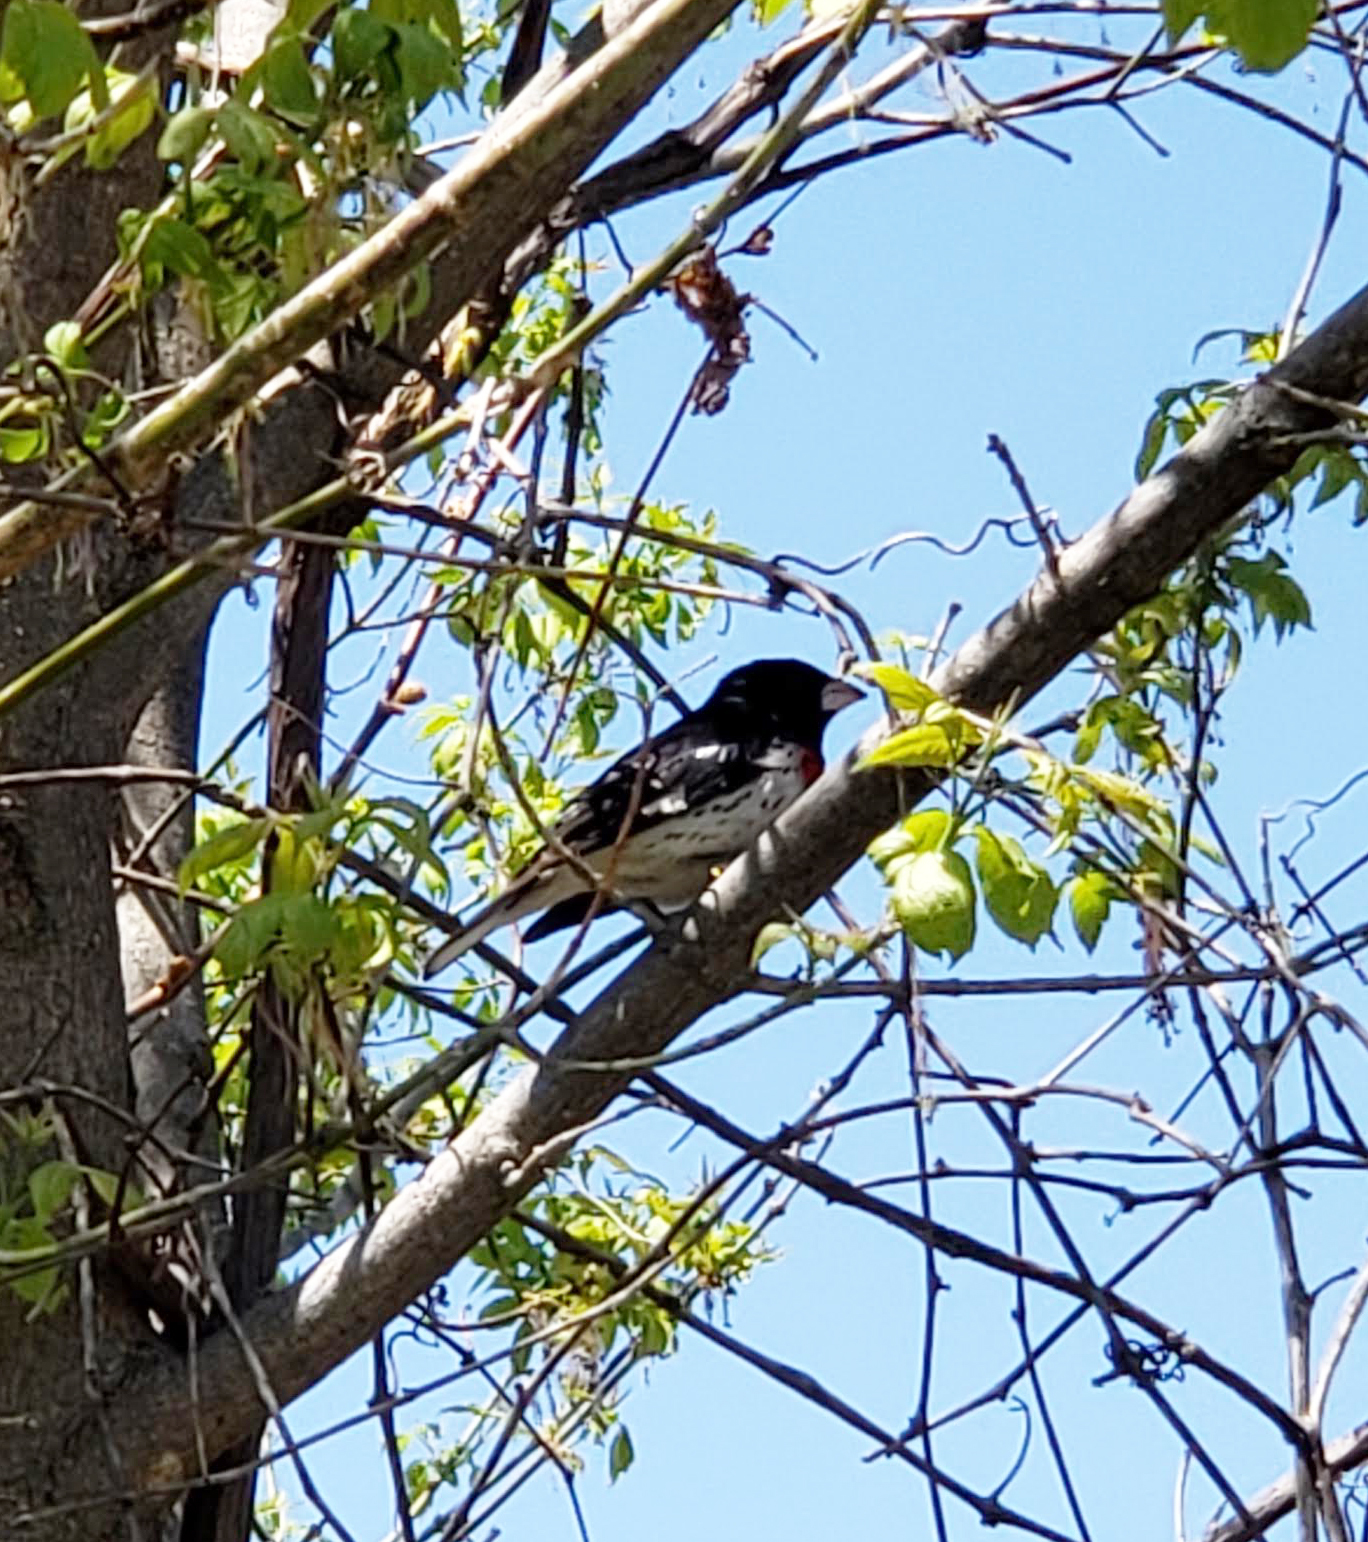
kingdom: Animalia
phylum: Chordata
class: Aves
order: Passeriformes
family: Cardinalidae
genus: Pheucticus
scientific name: Pheucticus ludovicianus
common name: Rose-breasted grosbeak
